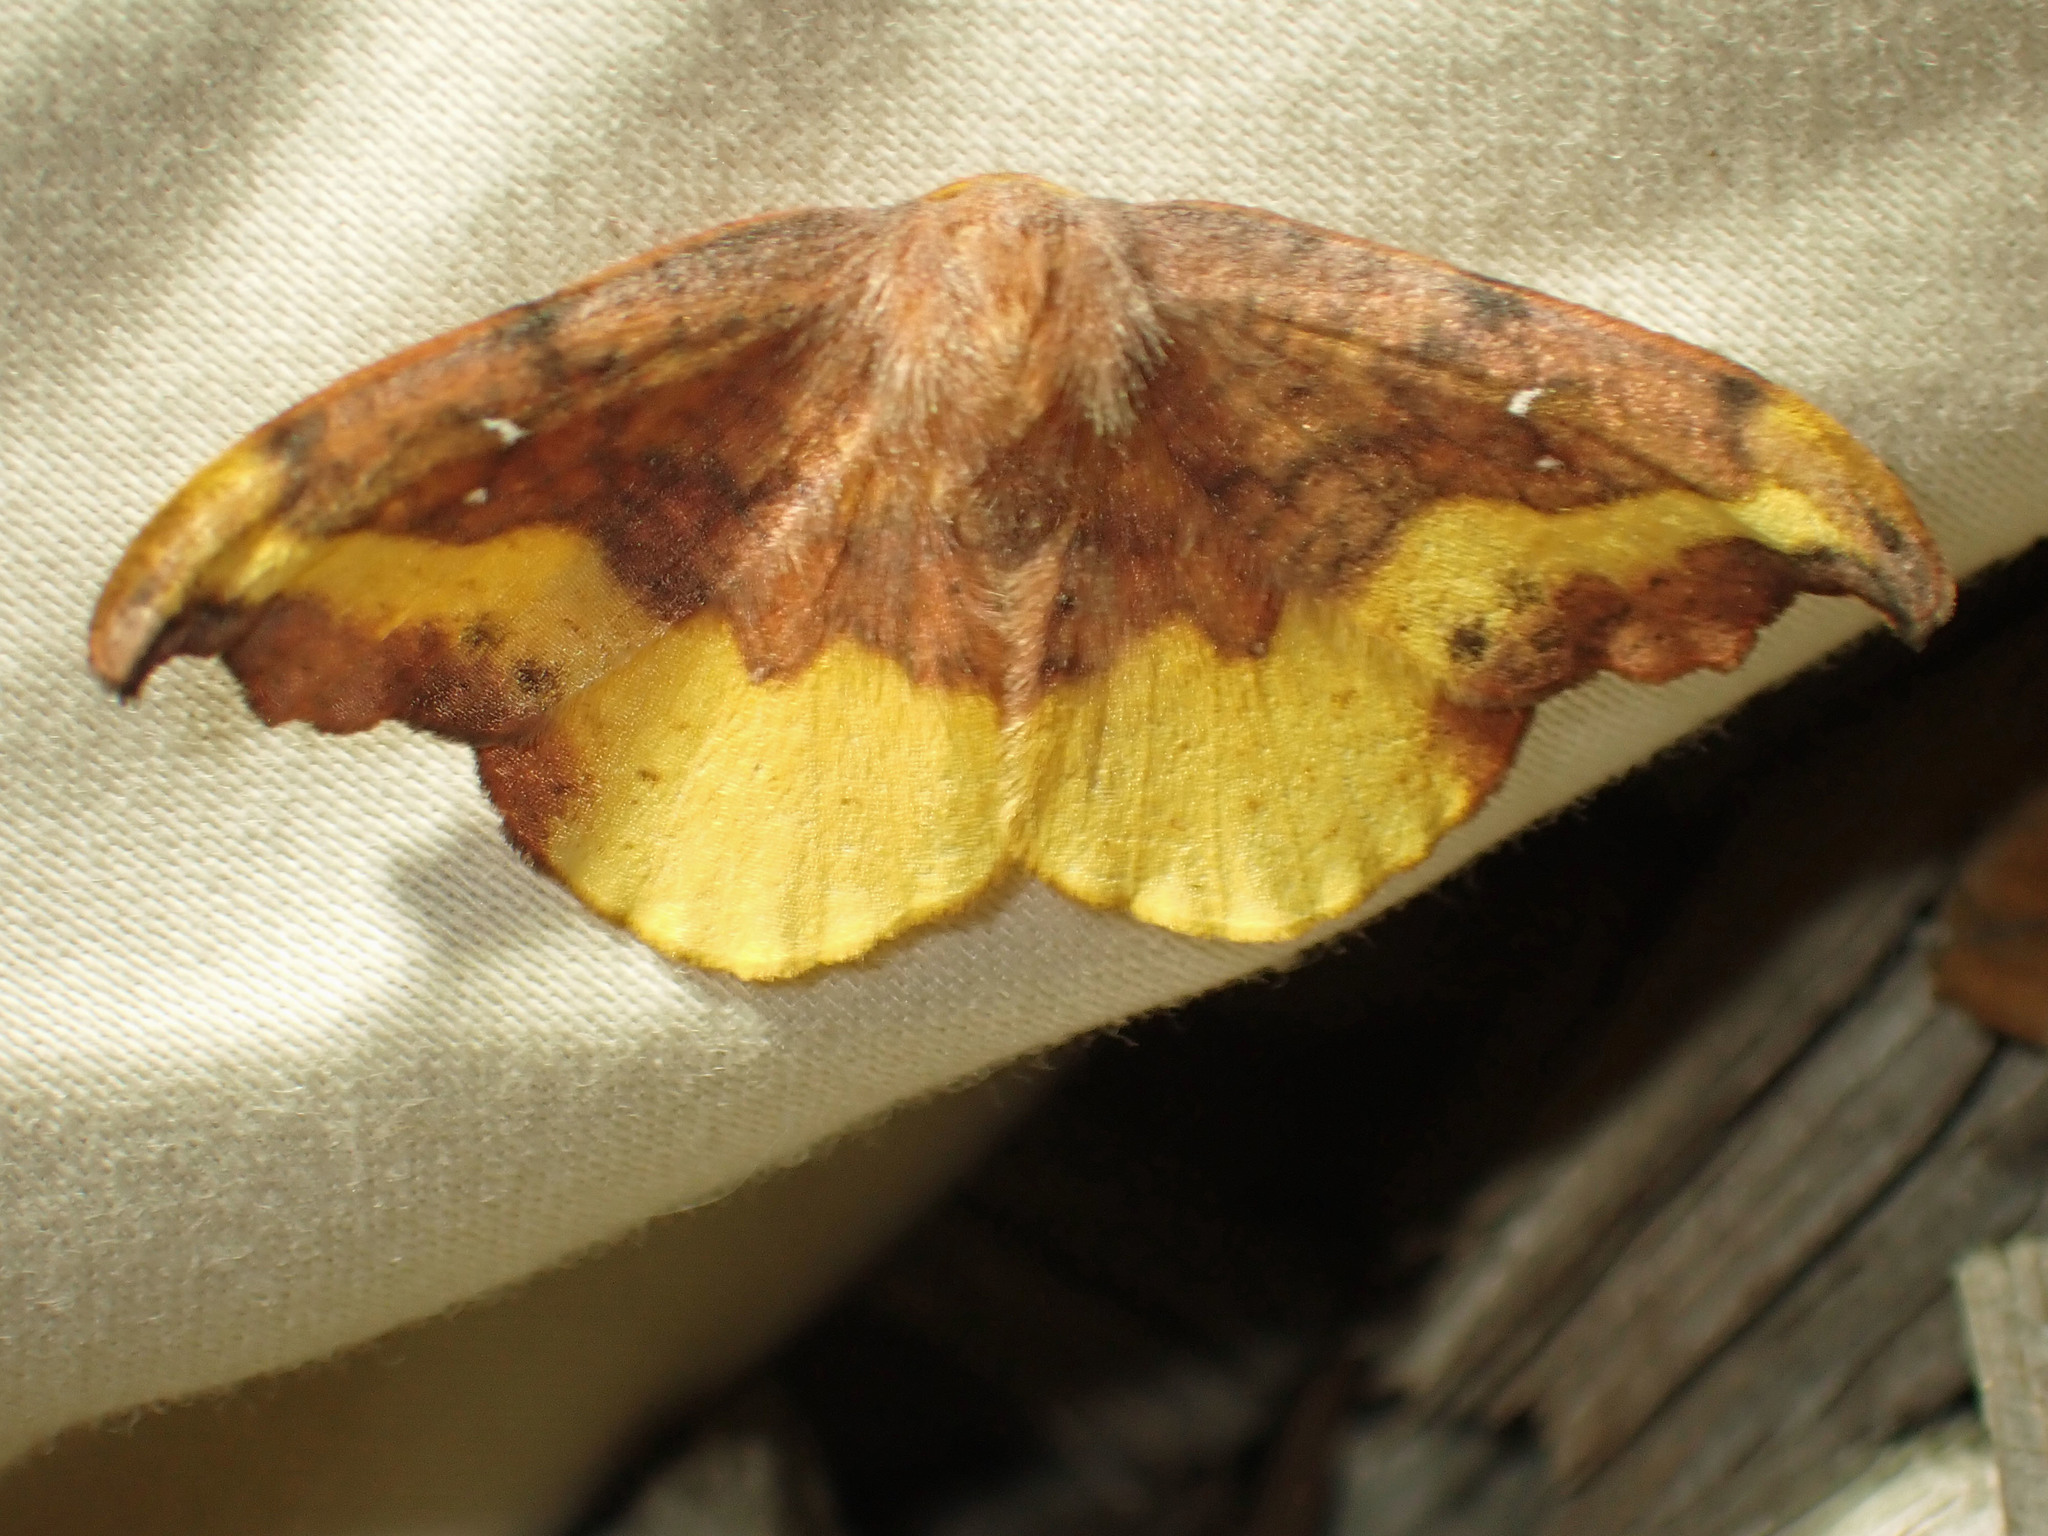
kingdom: Animalia
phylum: Arthropoda
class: Insecta
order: Lepidoptera
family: Drepanidae
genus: Oreta
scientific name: Oreta rosea
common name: Rose hooktip
